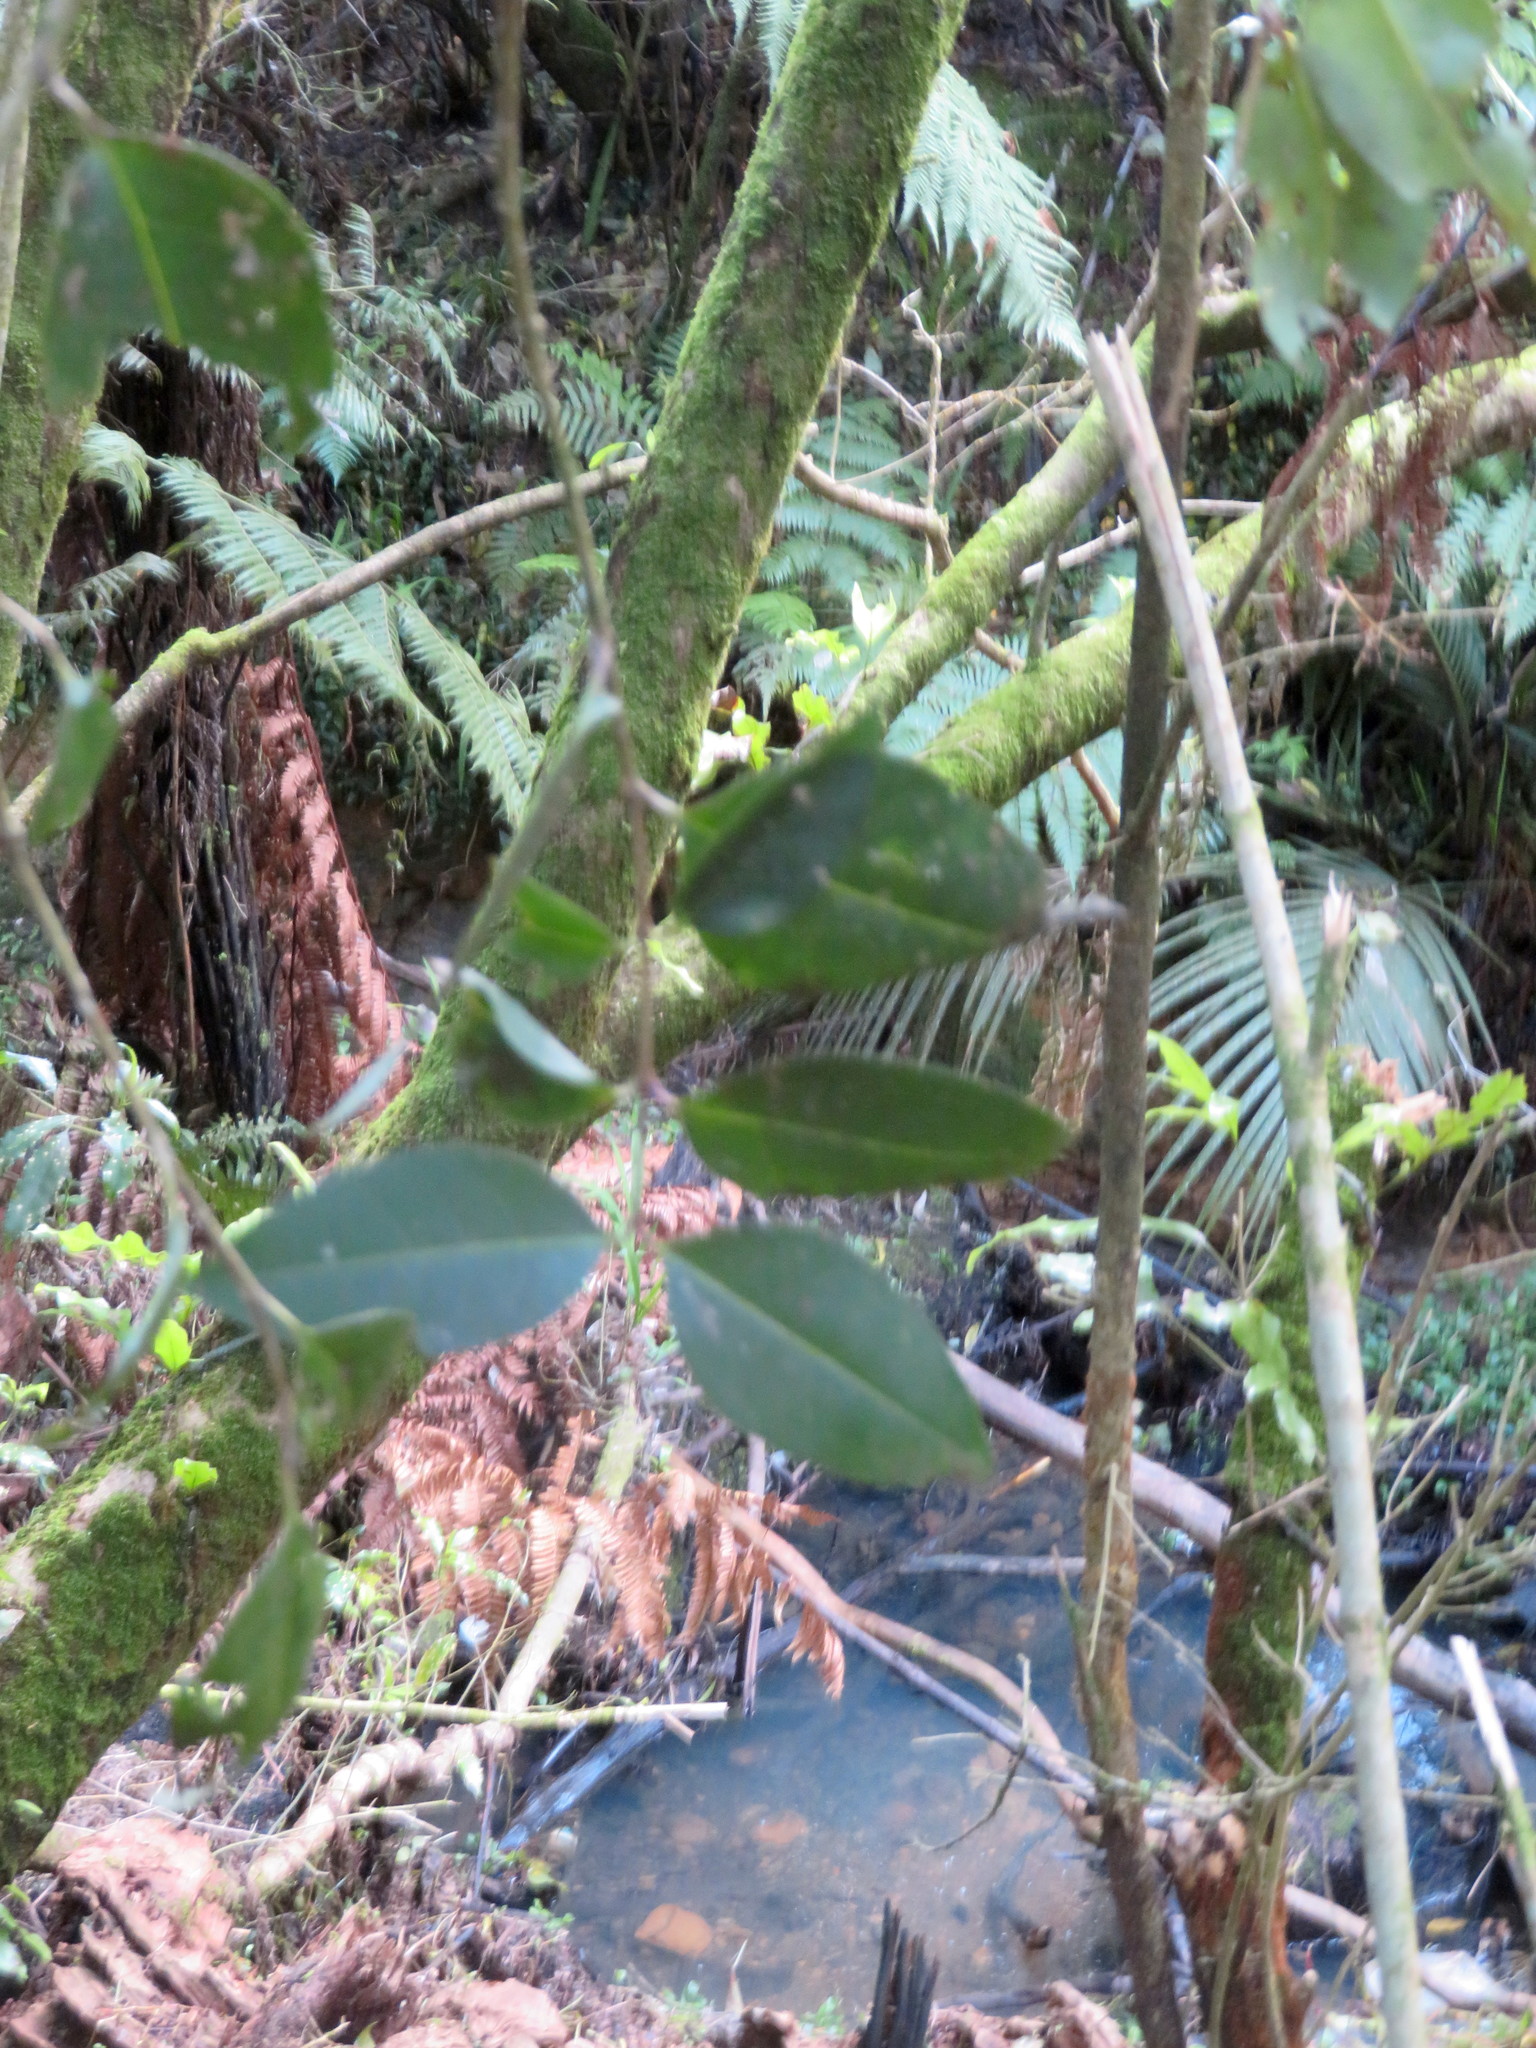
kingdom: Plantae
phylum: Tracheophyta
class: Magnoliopsida
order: Lamiales
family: Oleaceae
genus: Ligustrum
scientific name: Ligustrum lucidum
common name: Glossy privet
